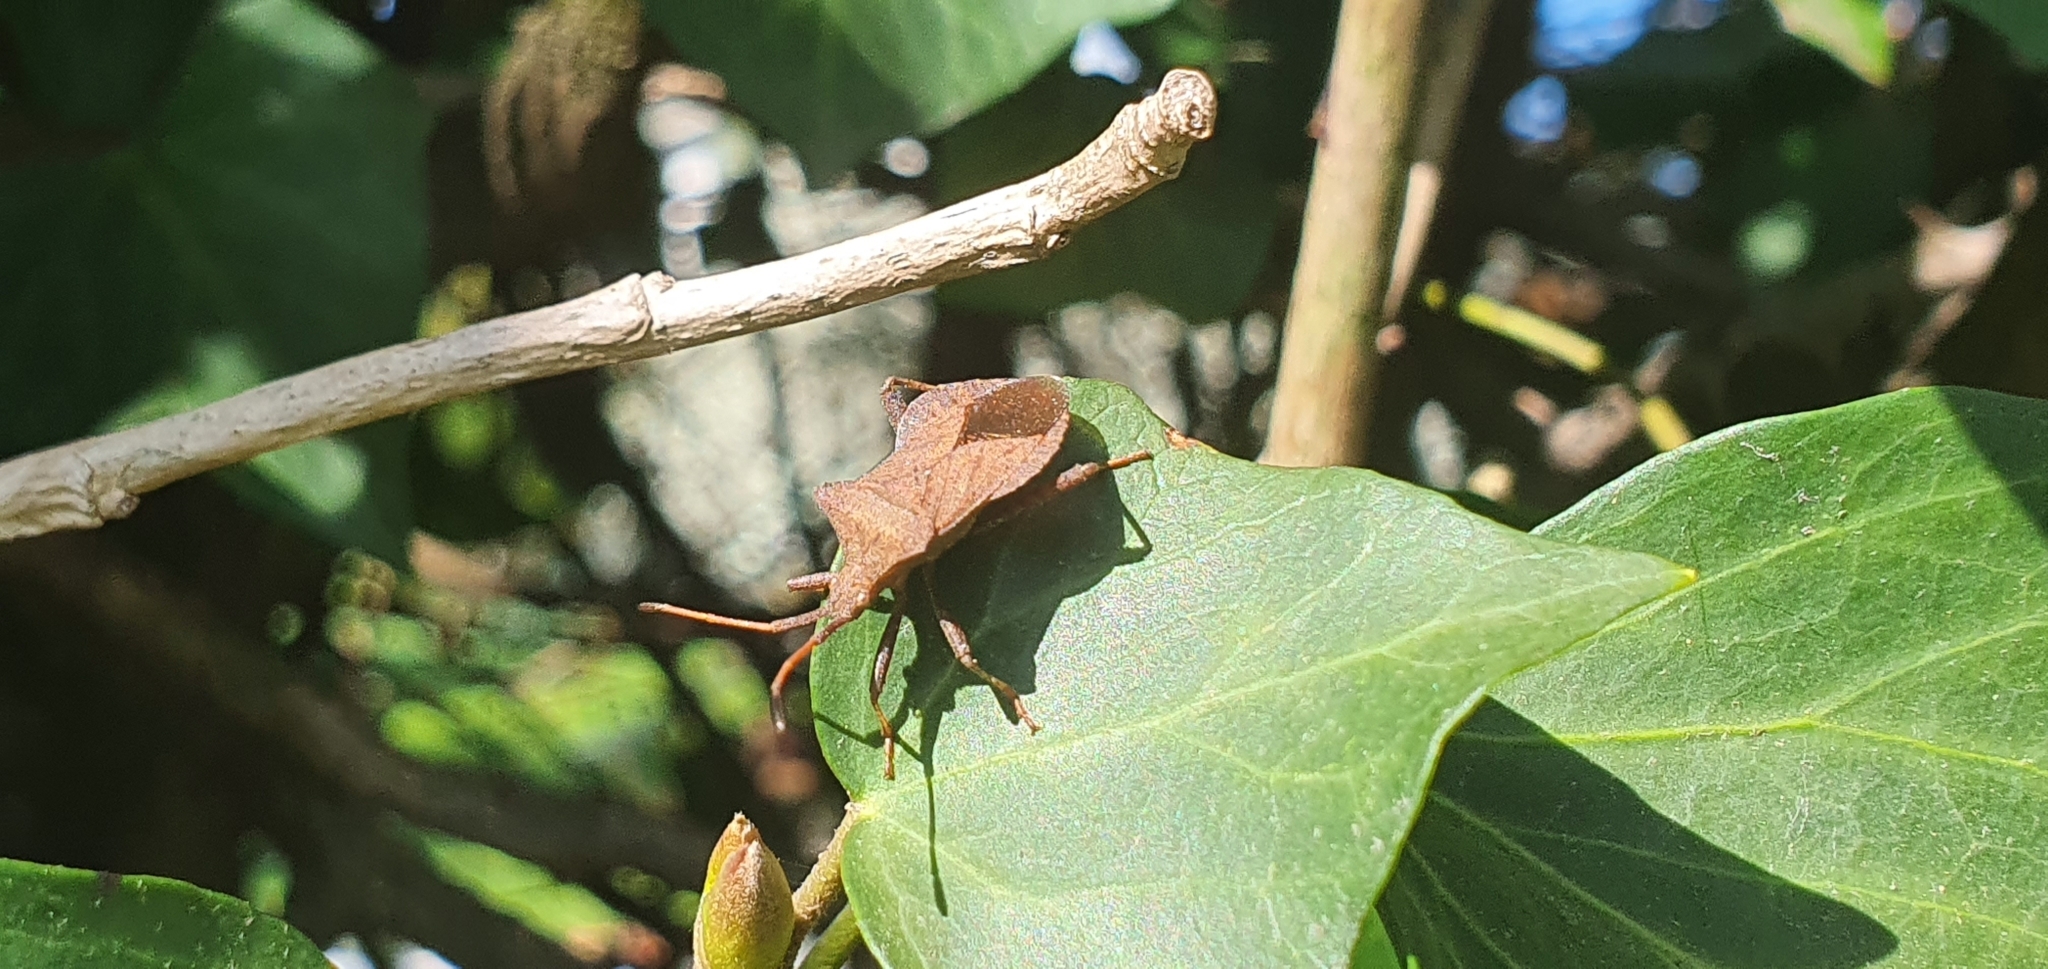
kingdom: Animalia
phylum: Arthropoda
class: Insecta
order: Hemiptera
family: Coreidae
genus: Coreus
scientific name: Coreus marginatus
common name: Dock bug
